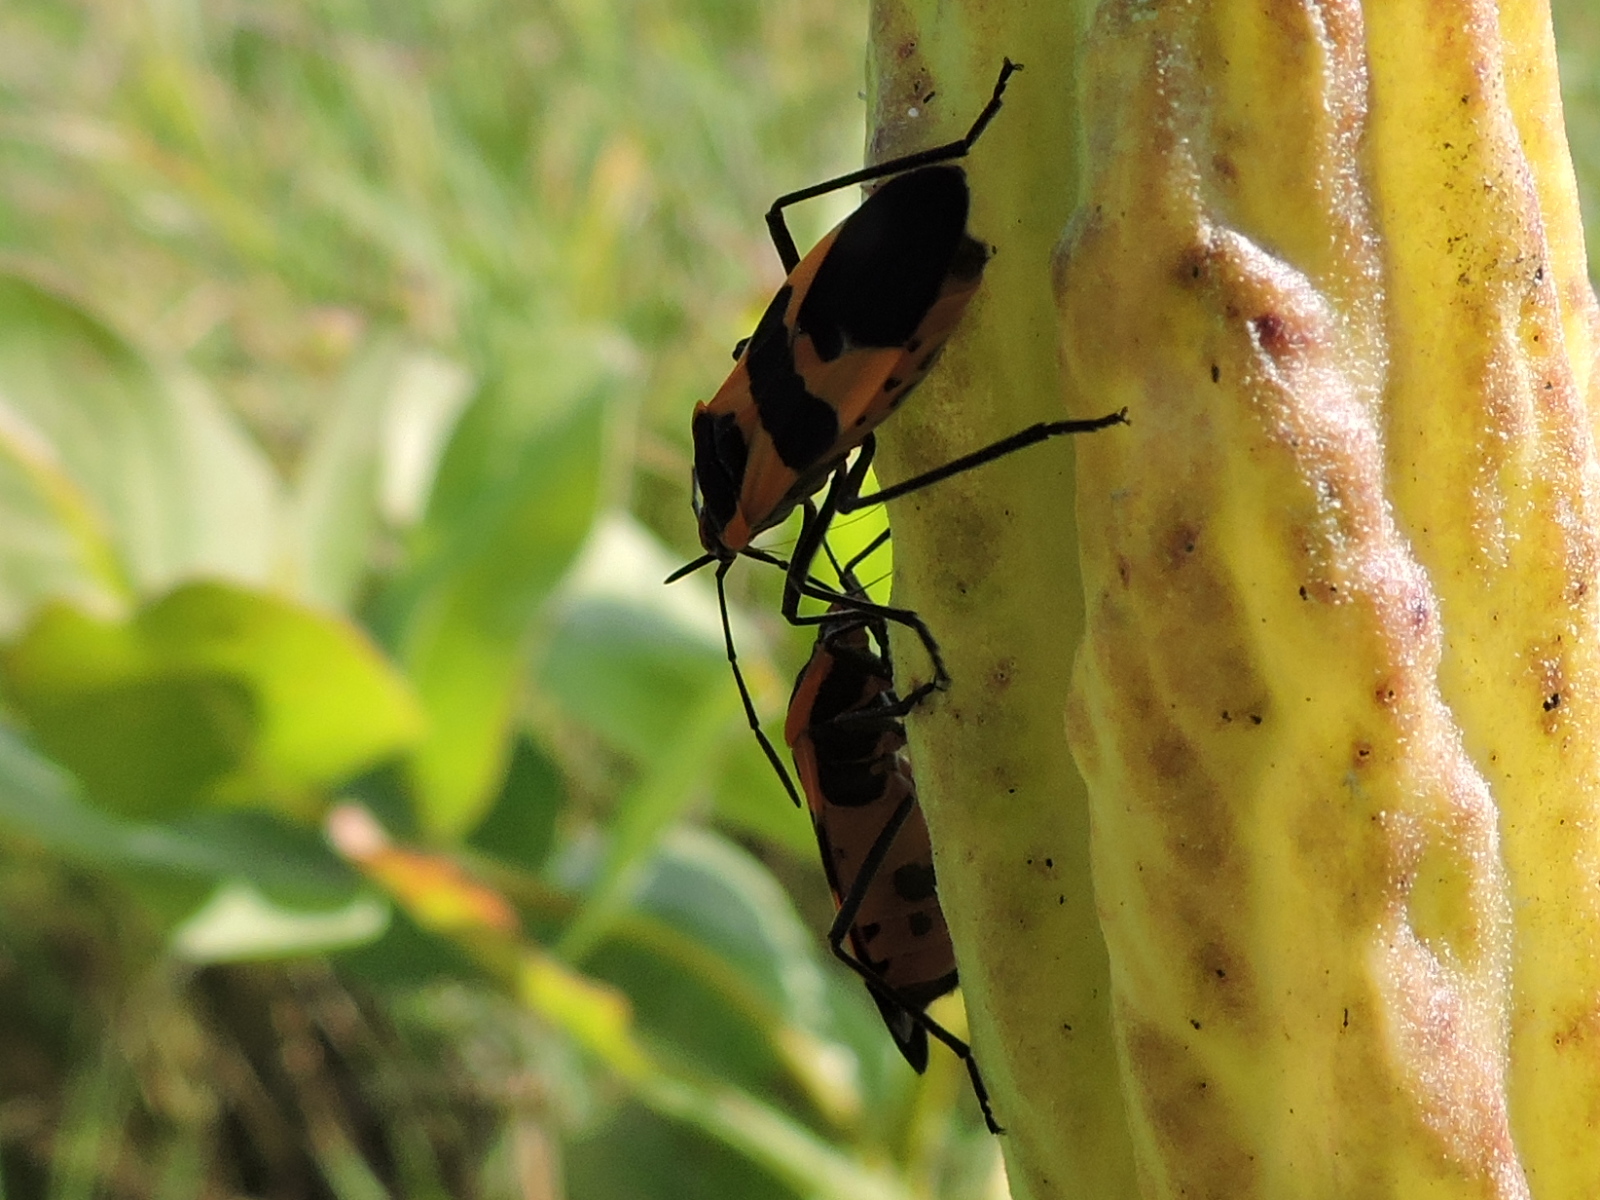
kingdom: Animalia
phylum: Arthropoda
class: Insecta
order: Hemiptera
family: Lygaeidae
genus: Oncopeltus
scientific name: Oncopeltus fasciatus
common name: Large milkweed bug
